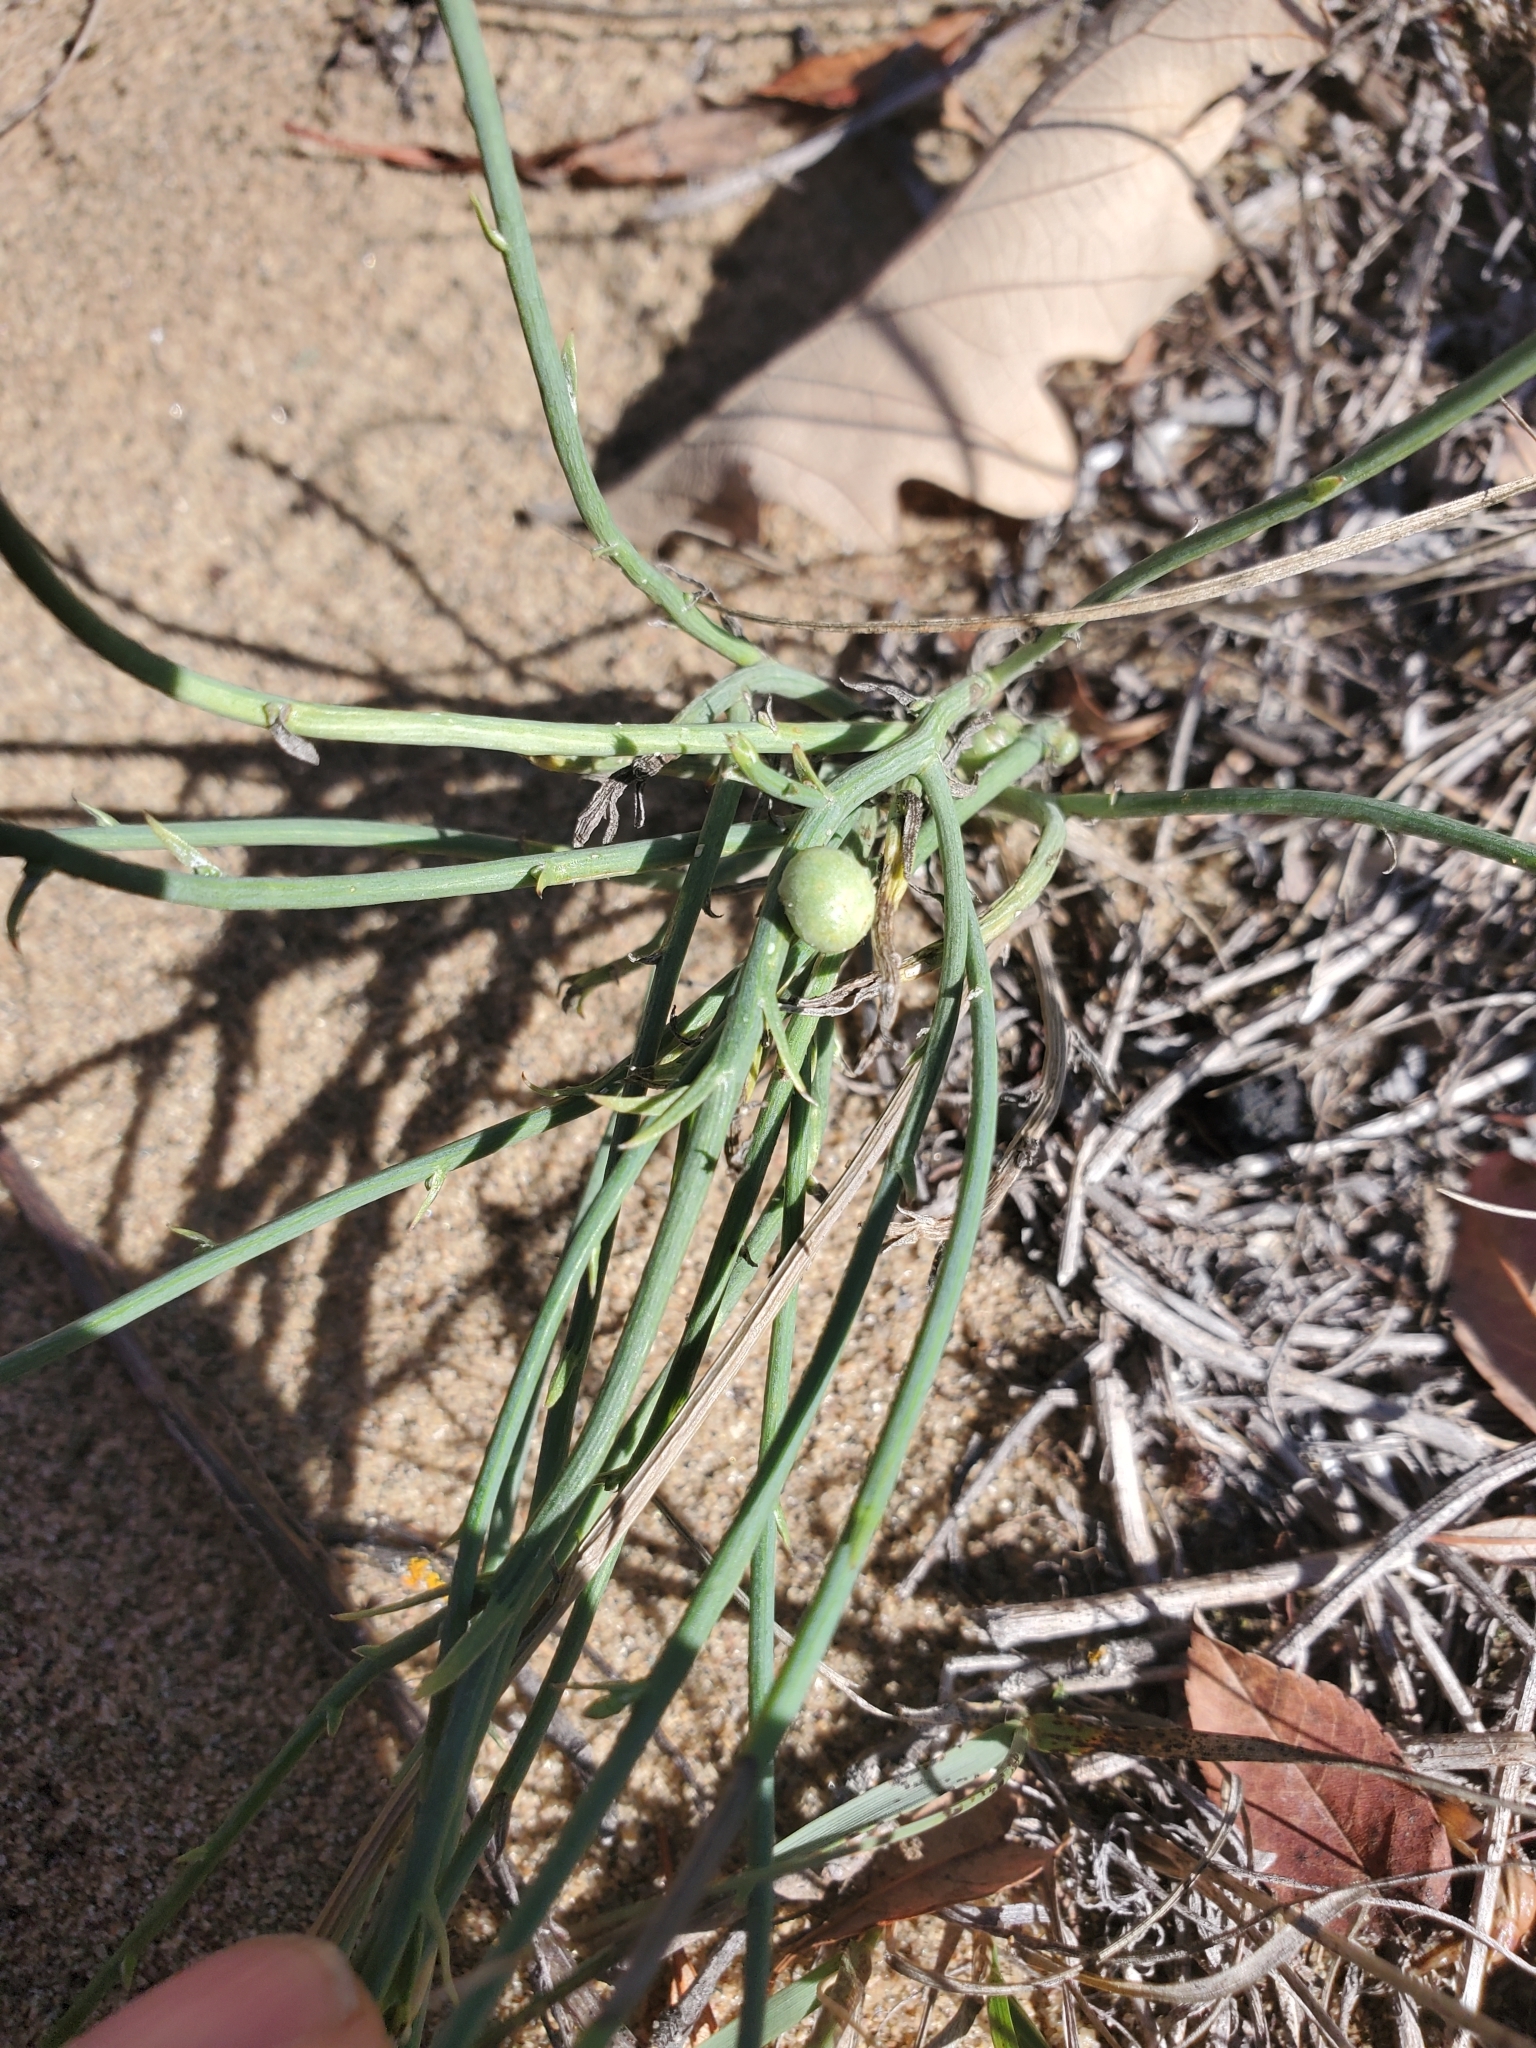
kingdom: Animalia
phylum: Arthropoda
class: Insecta
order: Hymenoptera
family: Cynipidae
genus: Antistrophus
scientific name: Antistrophus
